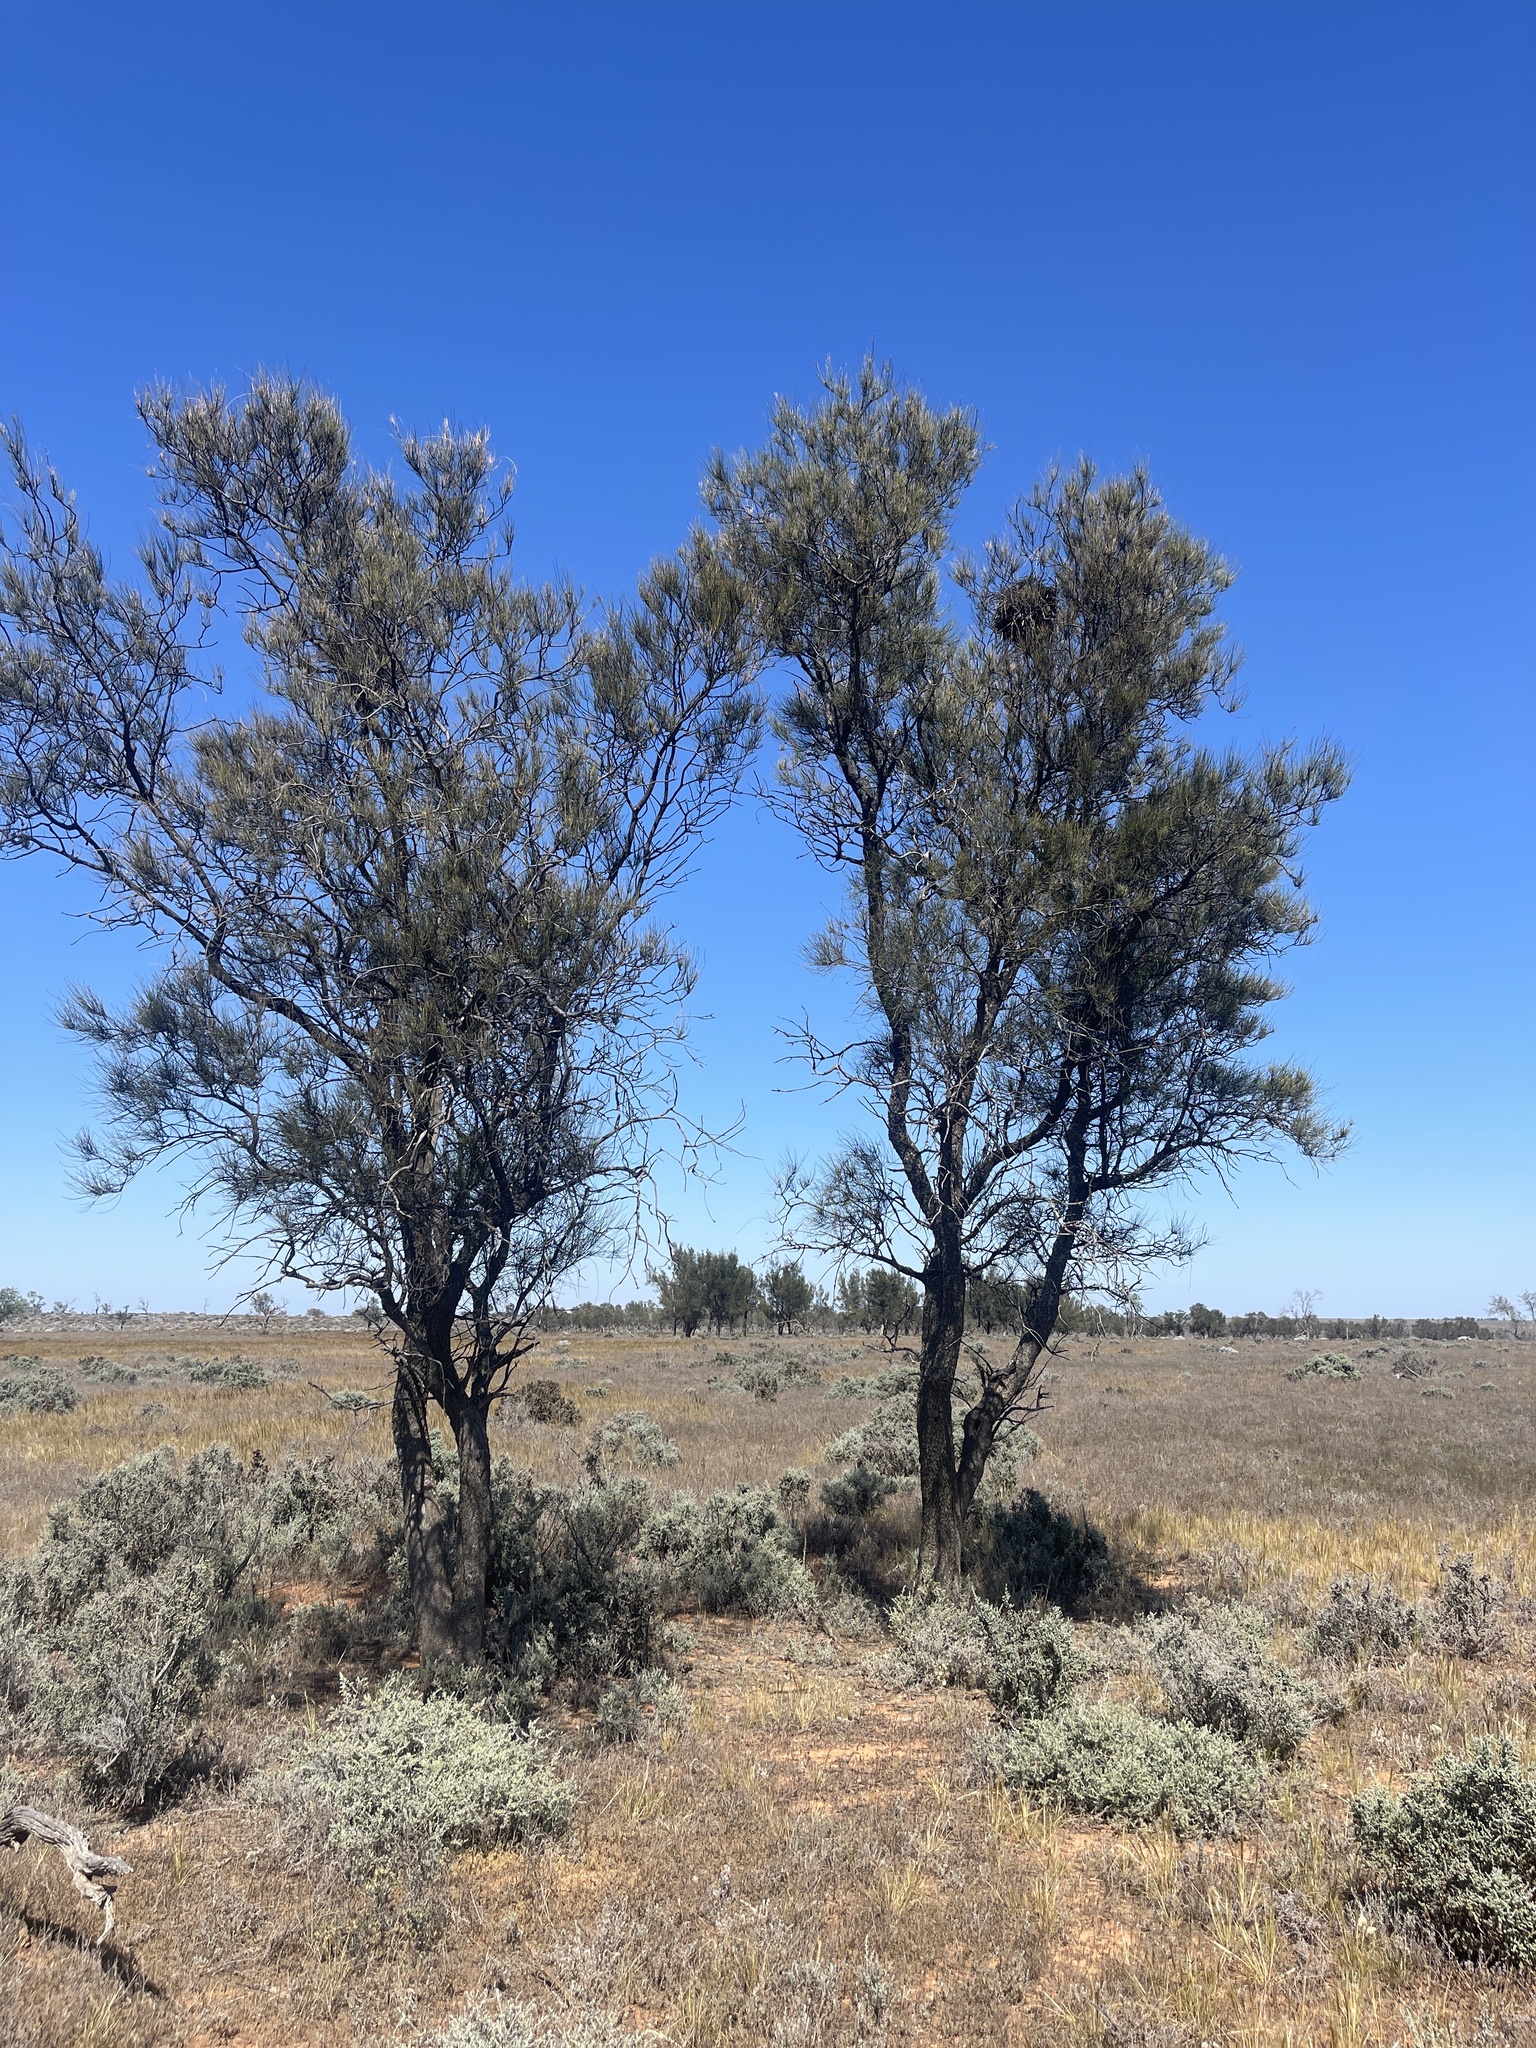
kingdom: Plantae
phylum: Tracheophyta
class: Magnoliopsida
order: Fagales
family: Casuarinaceae
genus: Casuarina
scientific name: Casuarina pauper
